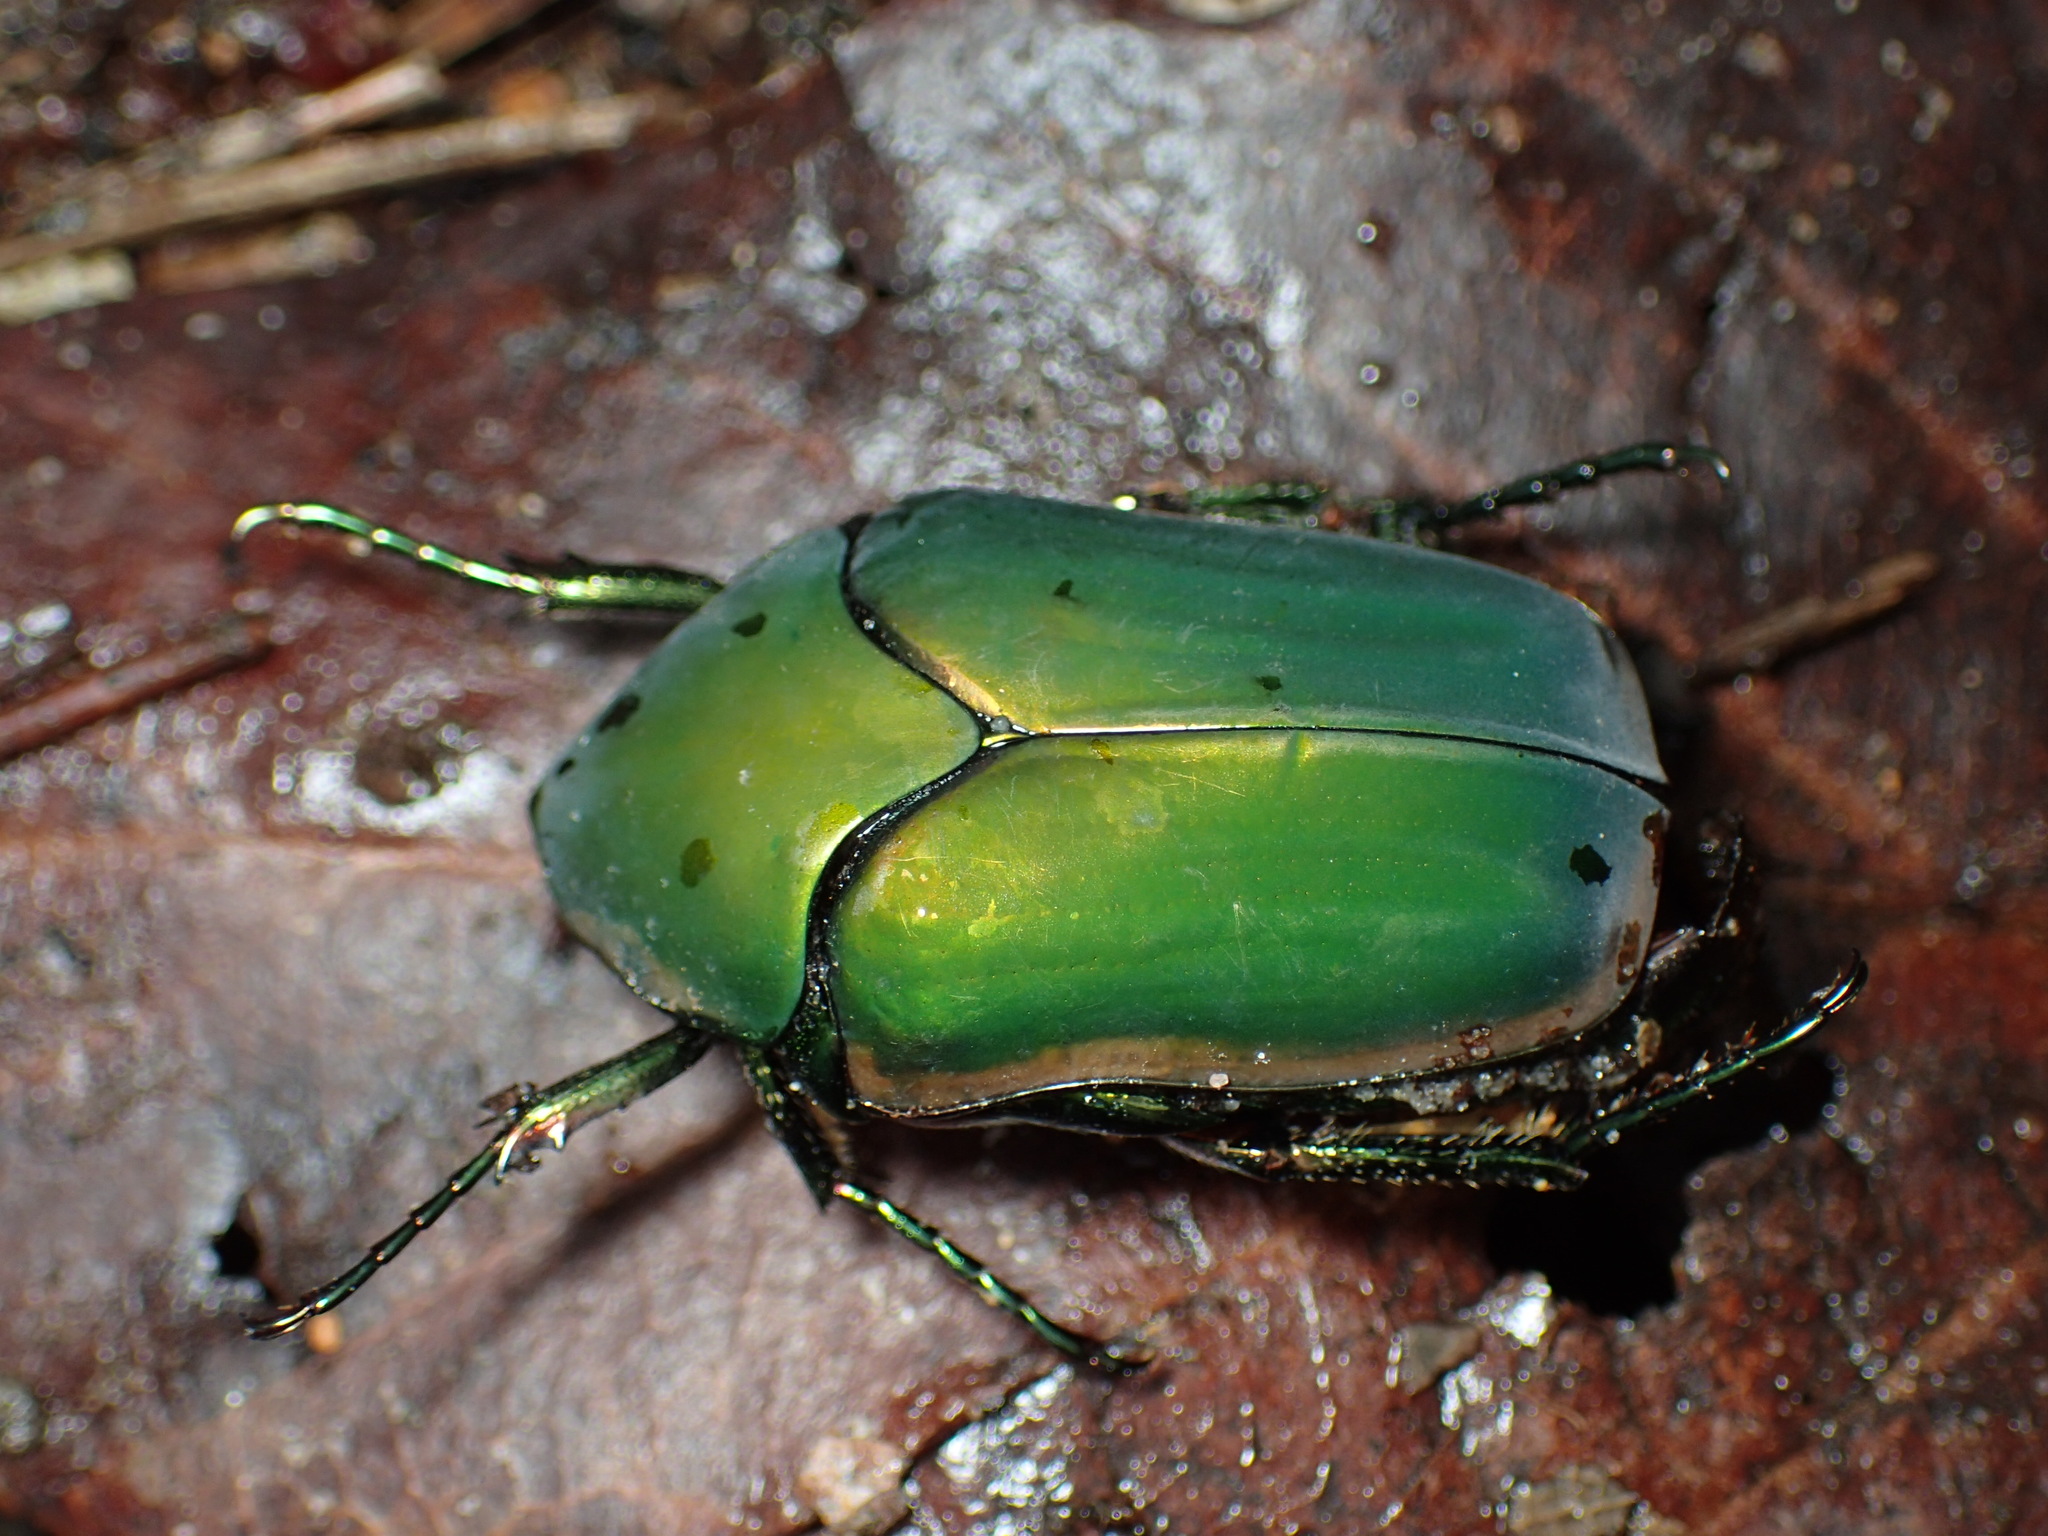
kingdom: Animalia
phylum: Arthropoda
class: Insecta
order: Coleoptera
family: Scarabaeidae
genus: Cotinis
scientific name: Cotinis nitida
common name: Common green june beetle
